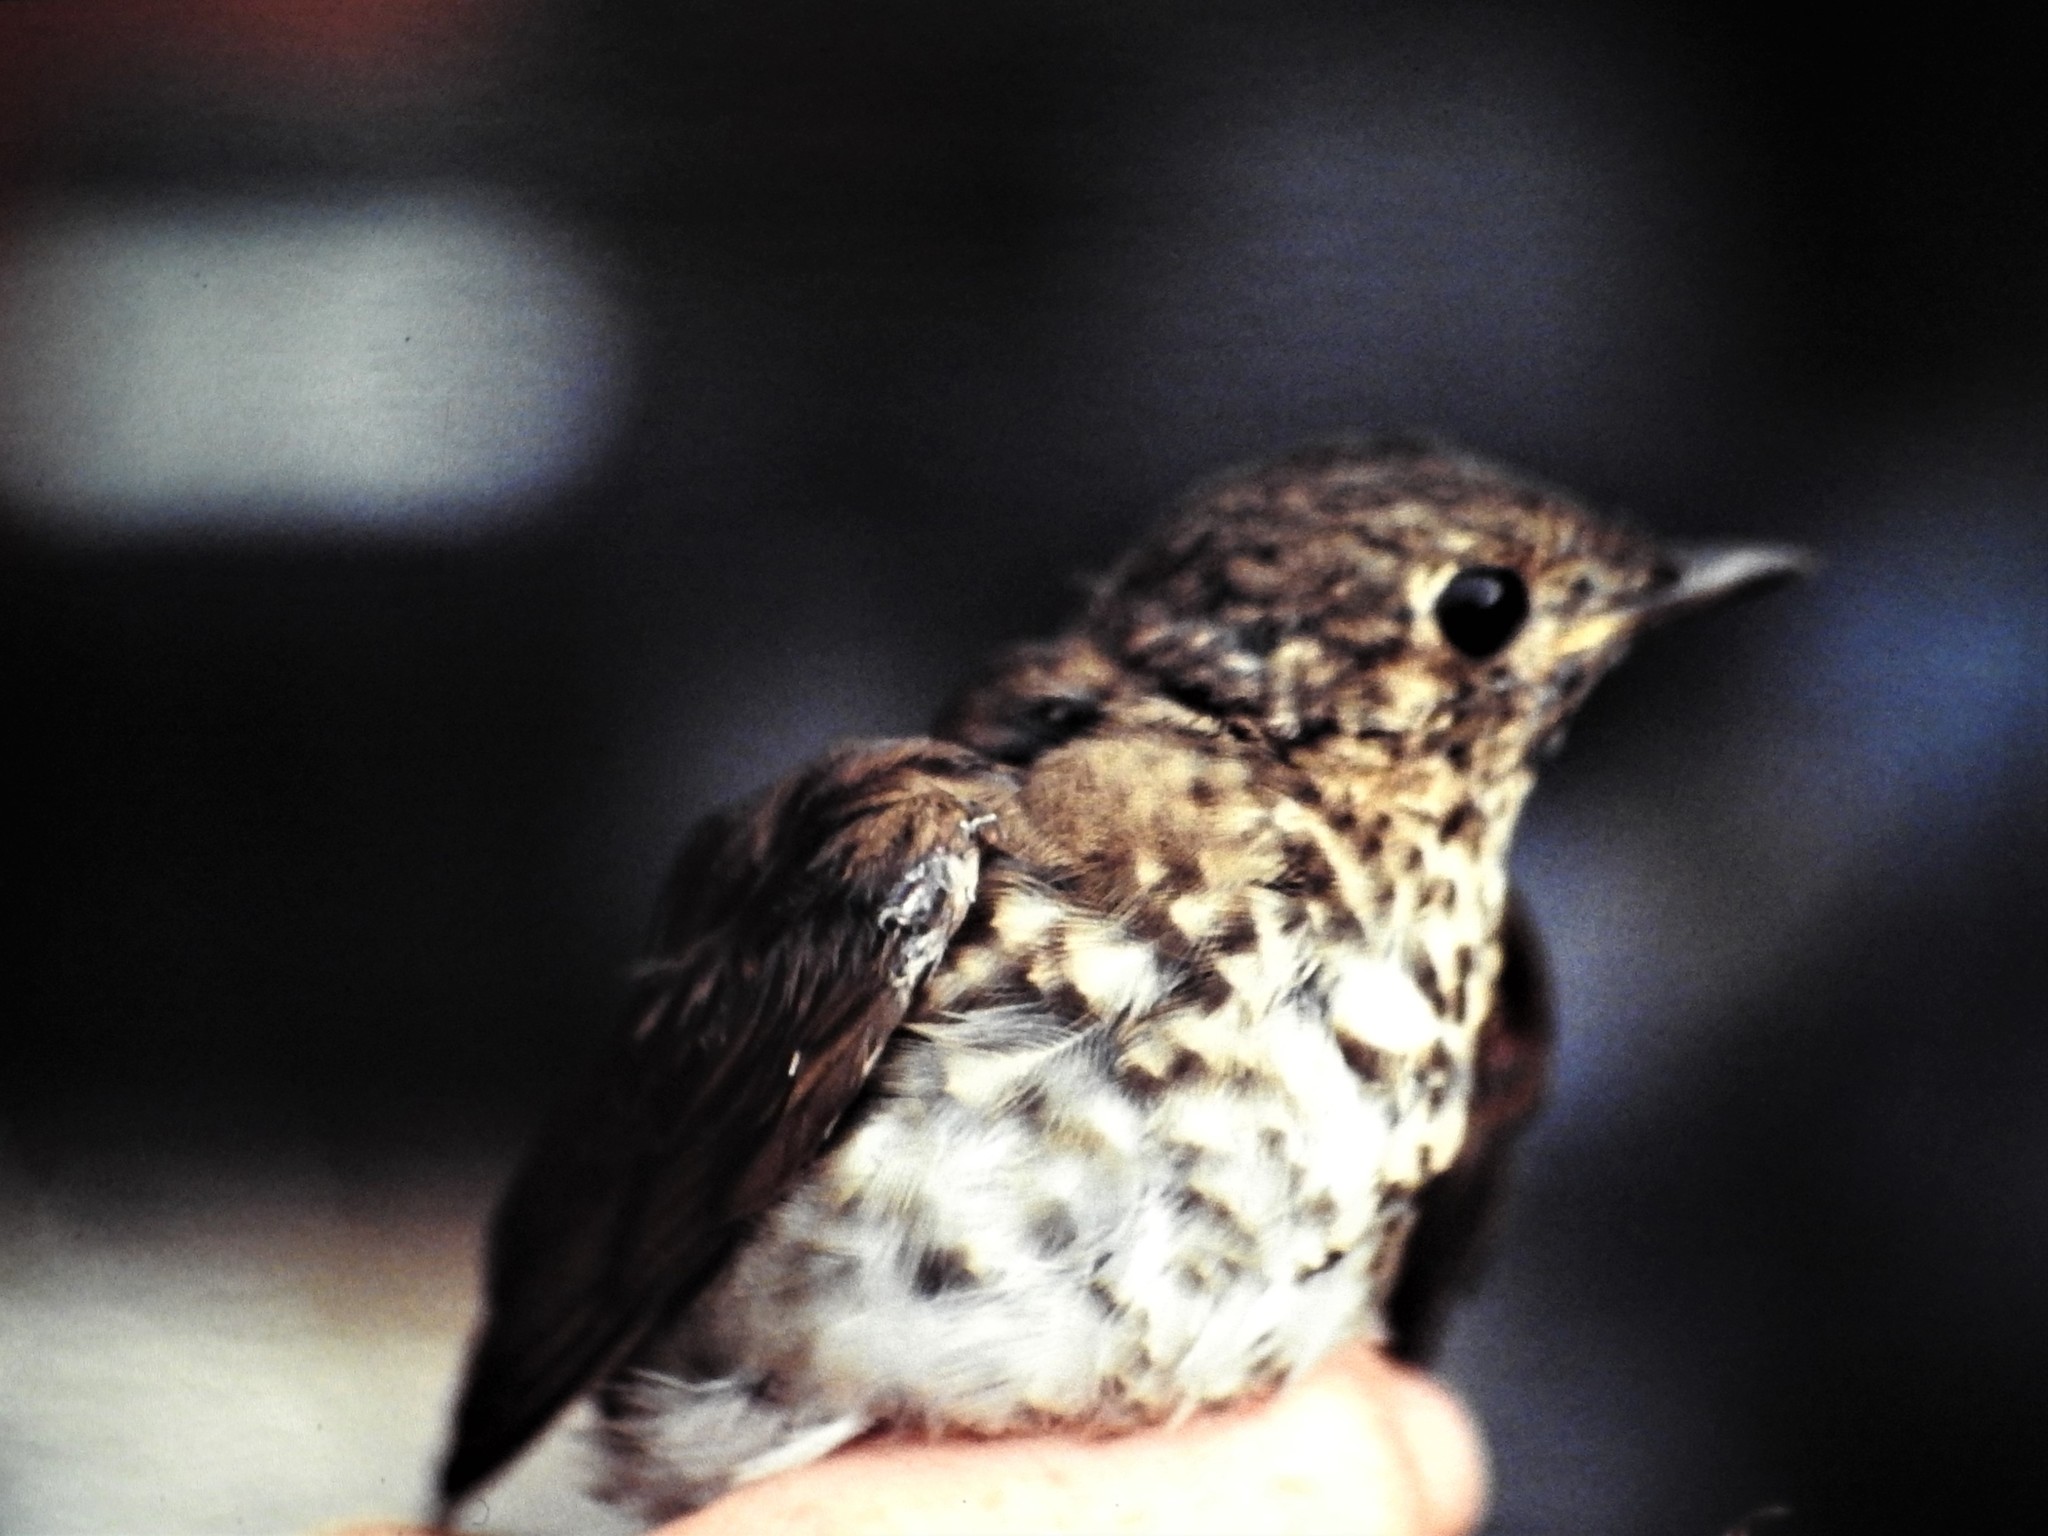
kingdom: Animalia
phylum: Chordata
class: Aves
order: Passeriformes
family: Turdidae
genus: Catharus
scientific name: Catharus ustulatus
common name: Swainson's thrush
